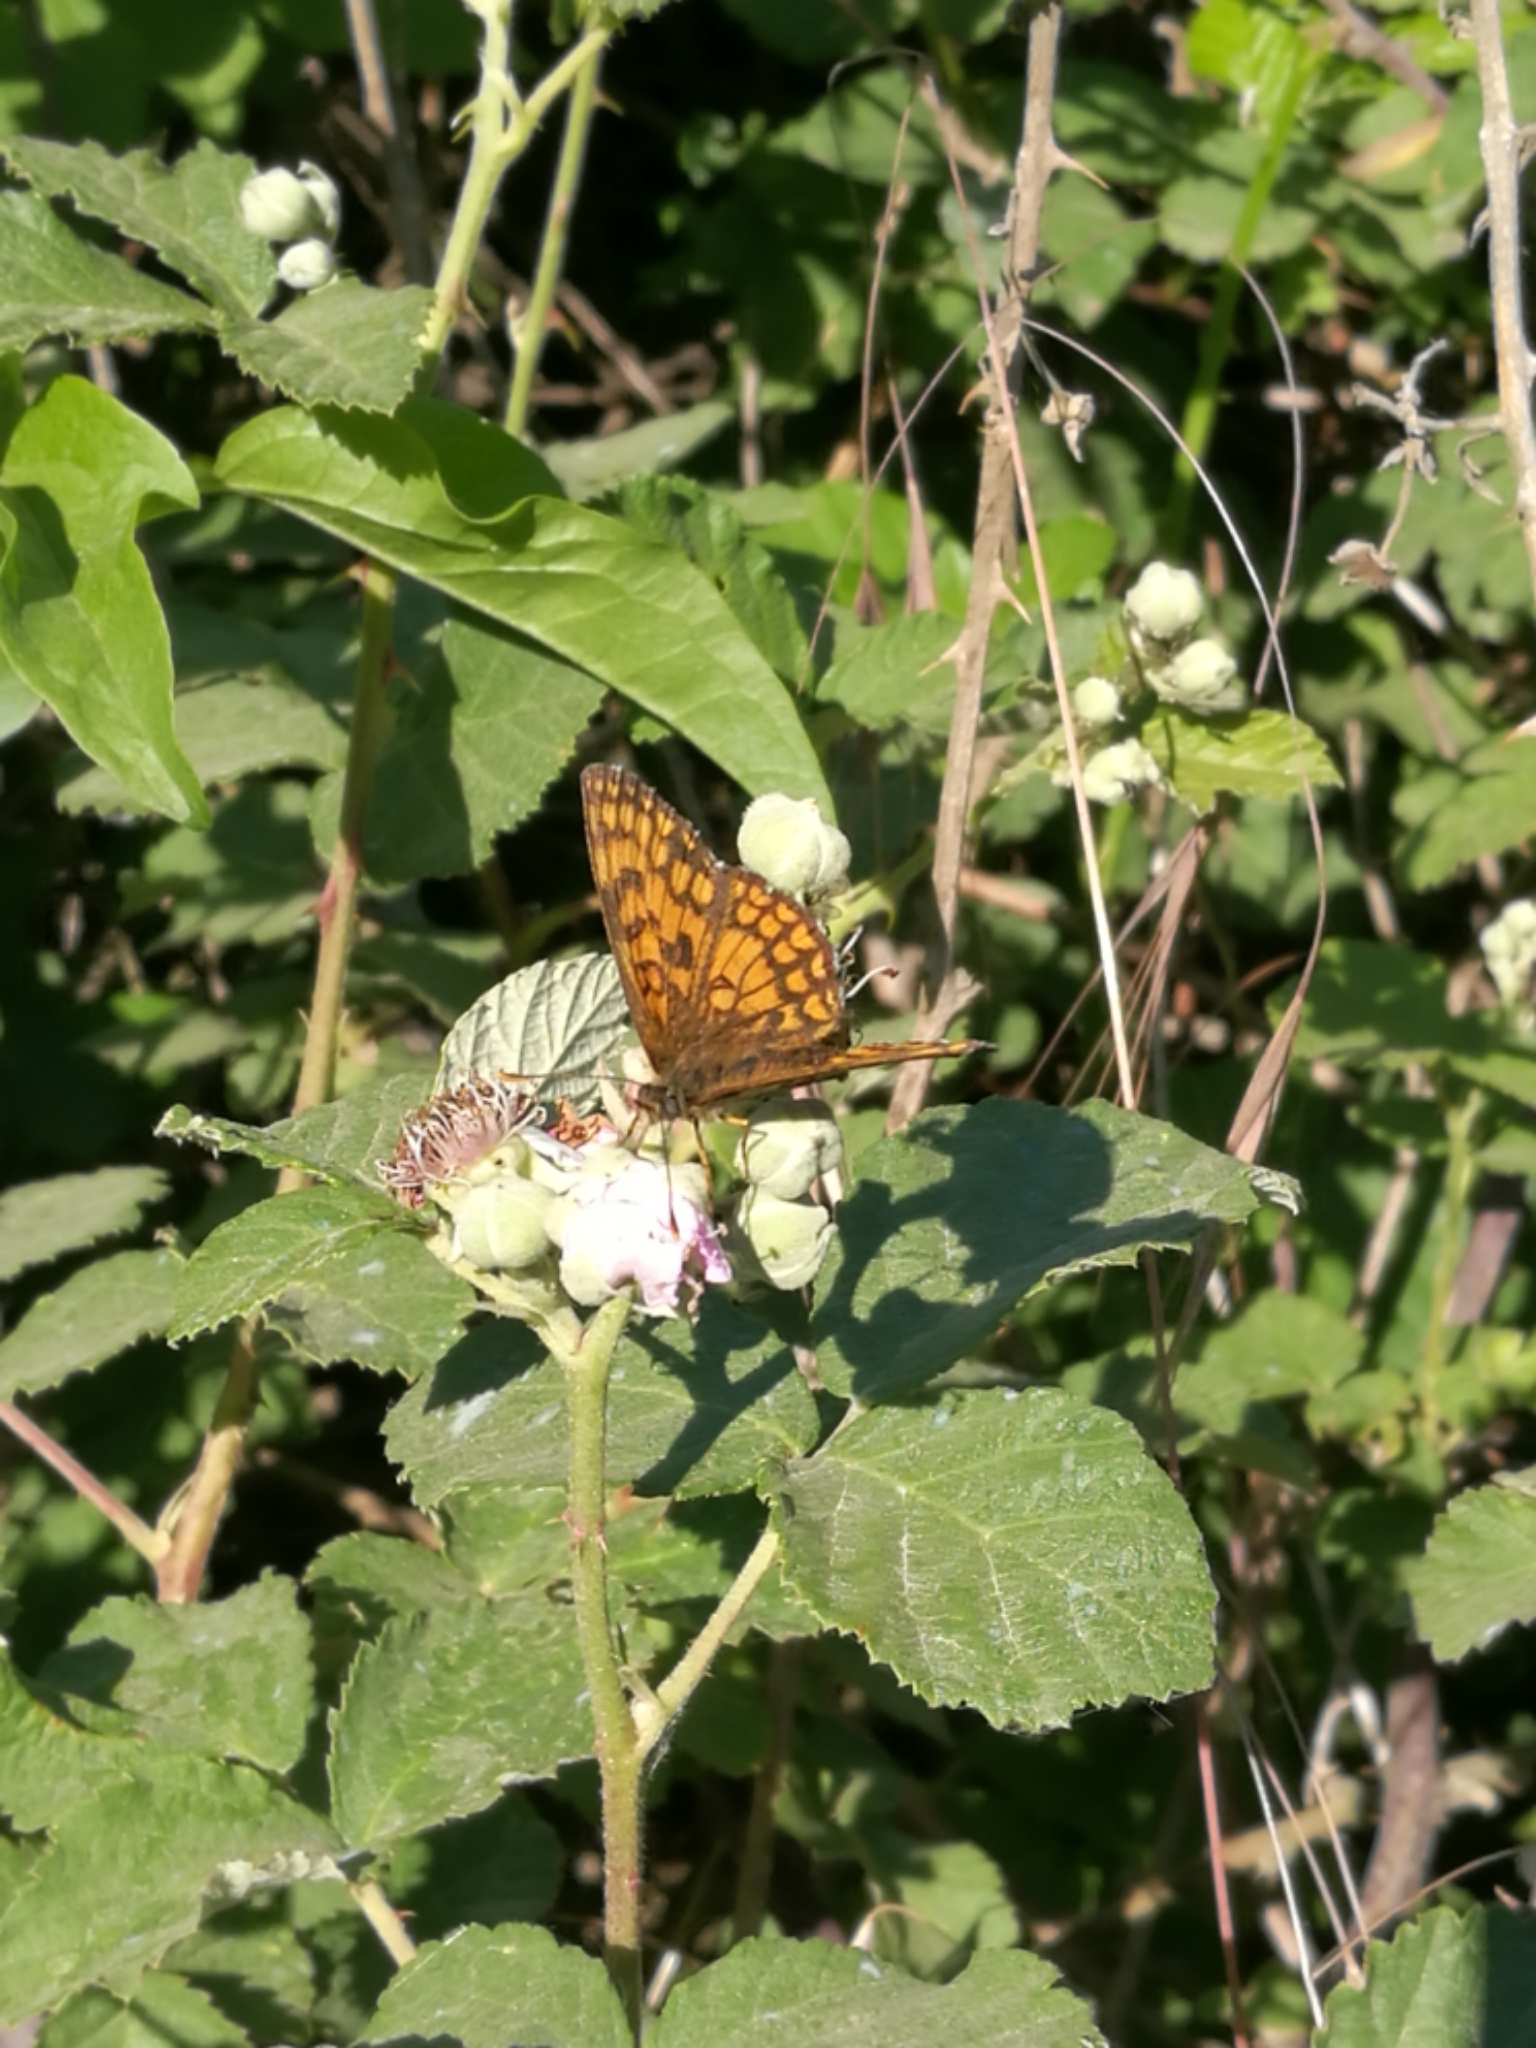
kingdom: Animalia
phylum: Arthropoda
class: Insecta
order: Lepidoptera
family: Nymphalidae
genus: Mellicta
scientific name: Mellicta athalia
